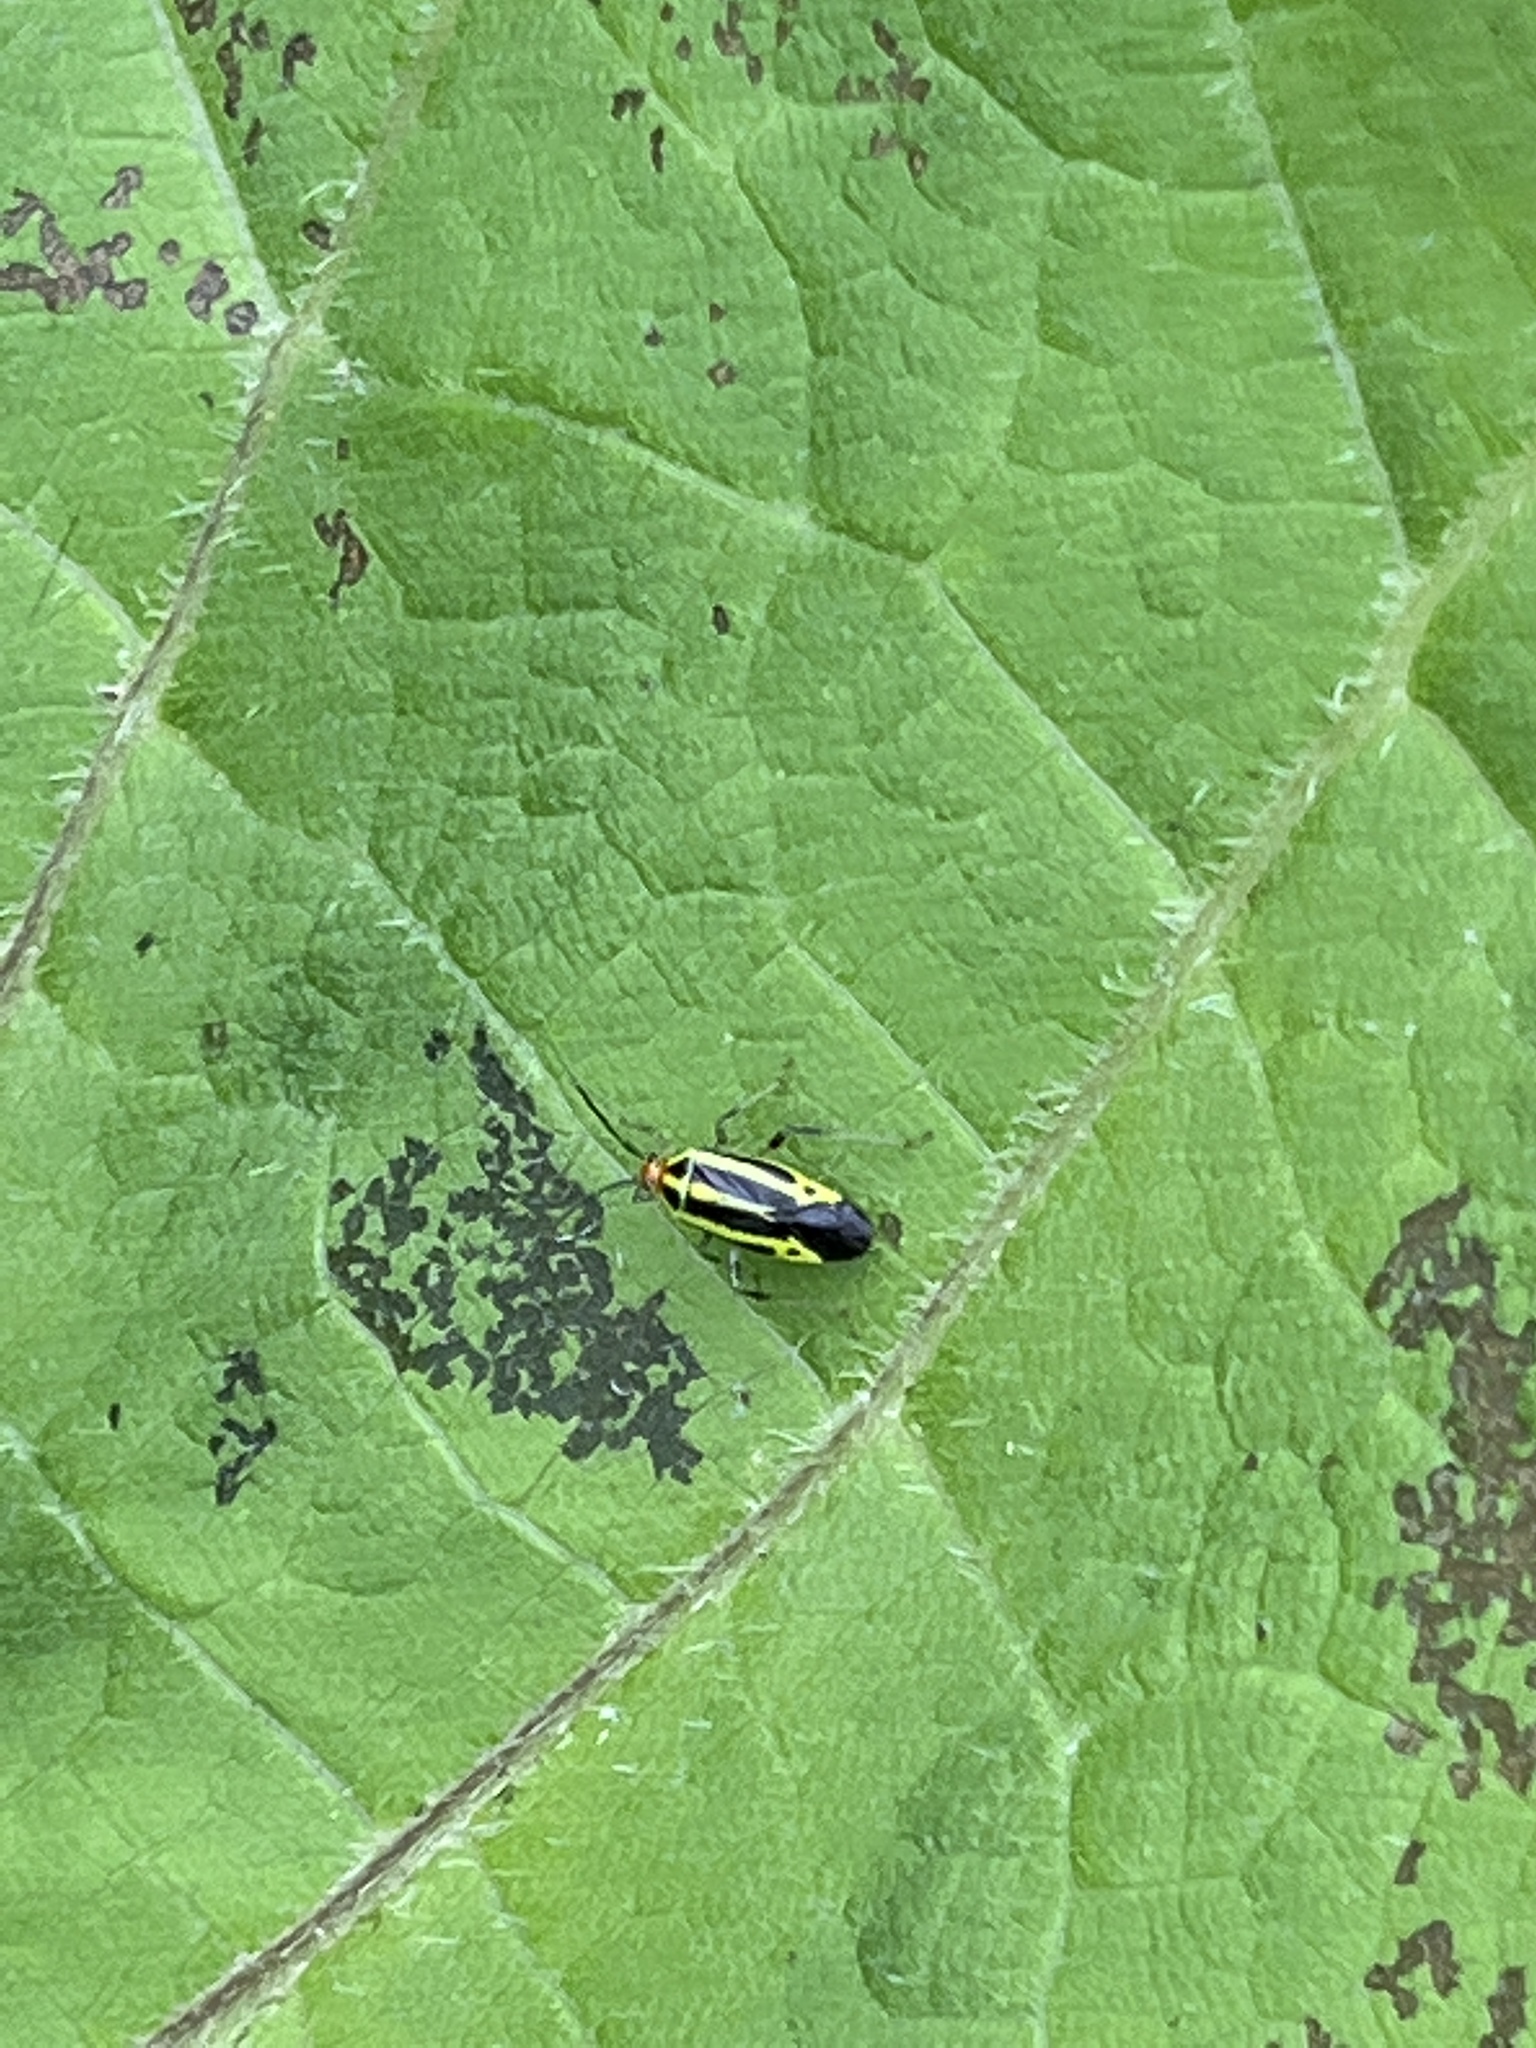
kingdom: Animalia
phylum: Arthropoda
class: Insecta
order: Hemiptera
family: Miridae
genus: Poecilocapsus
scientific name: Poecilocapsus lineatus
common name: Four-lined plant bug
